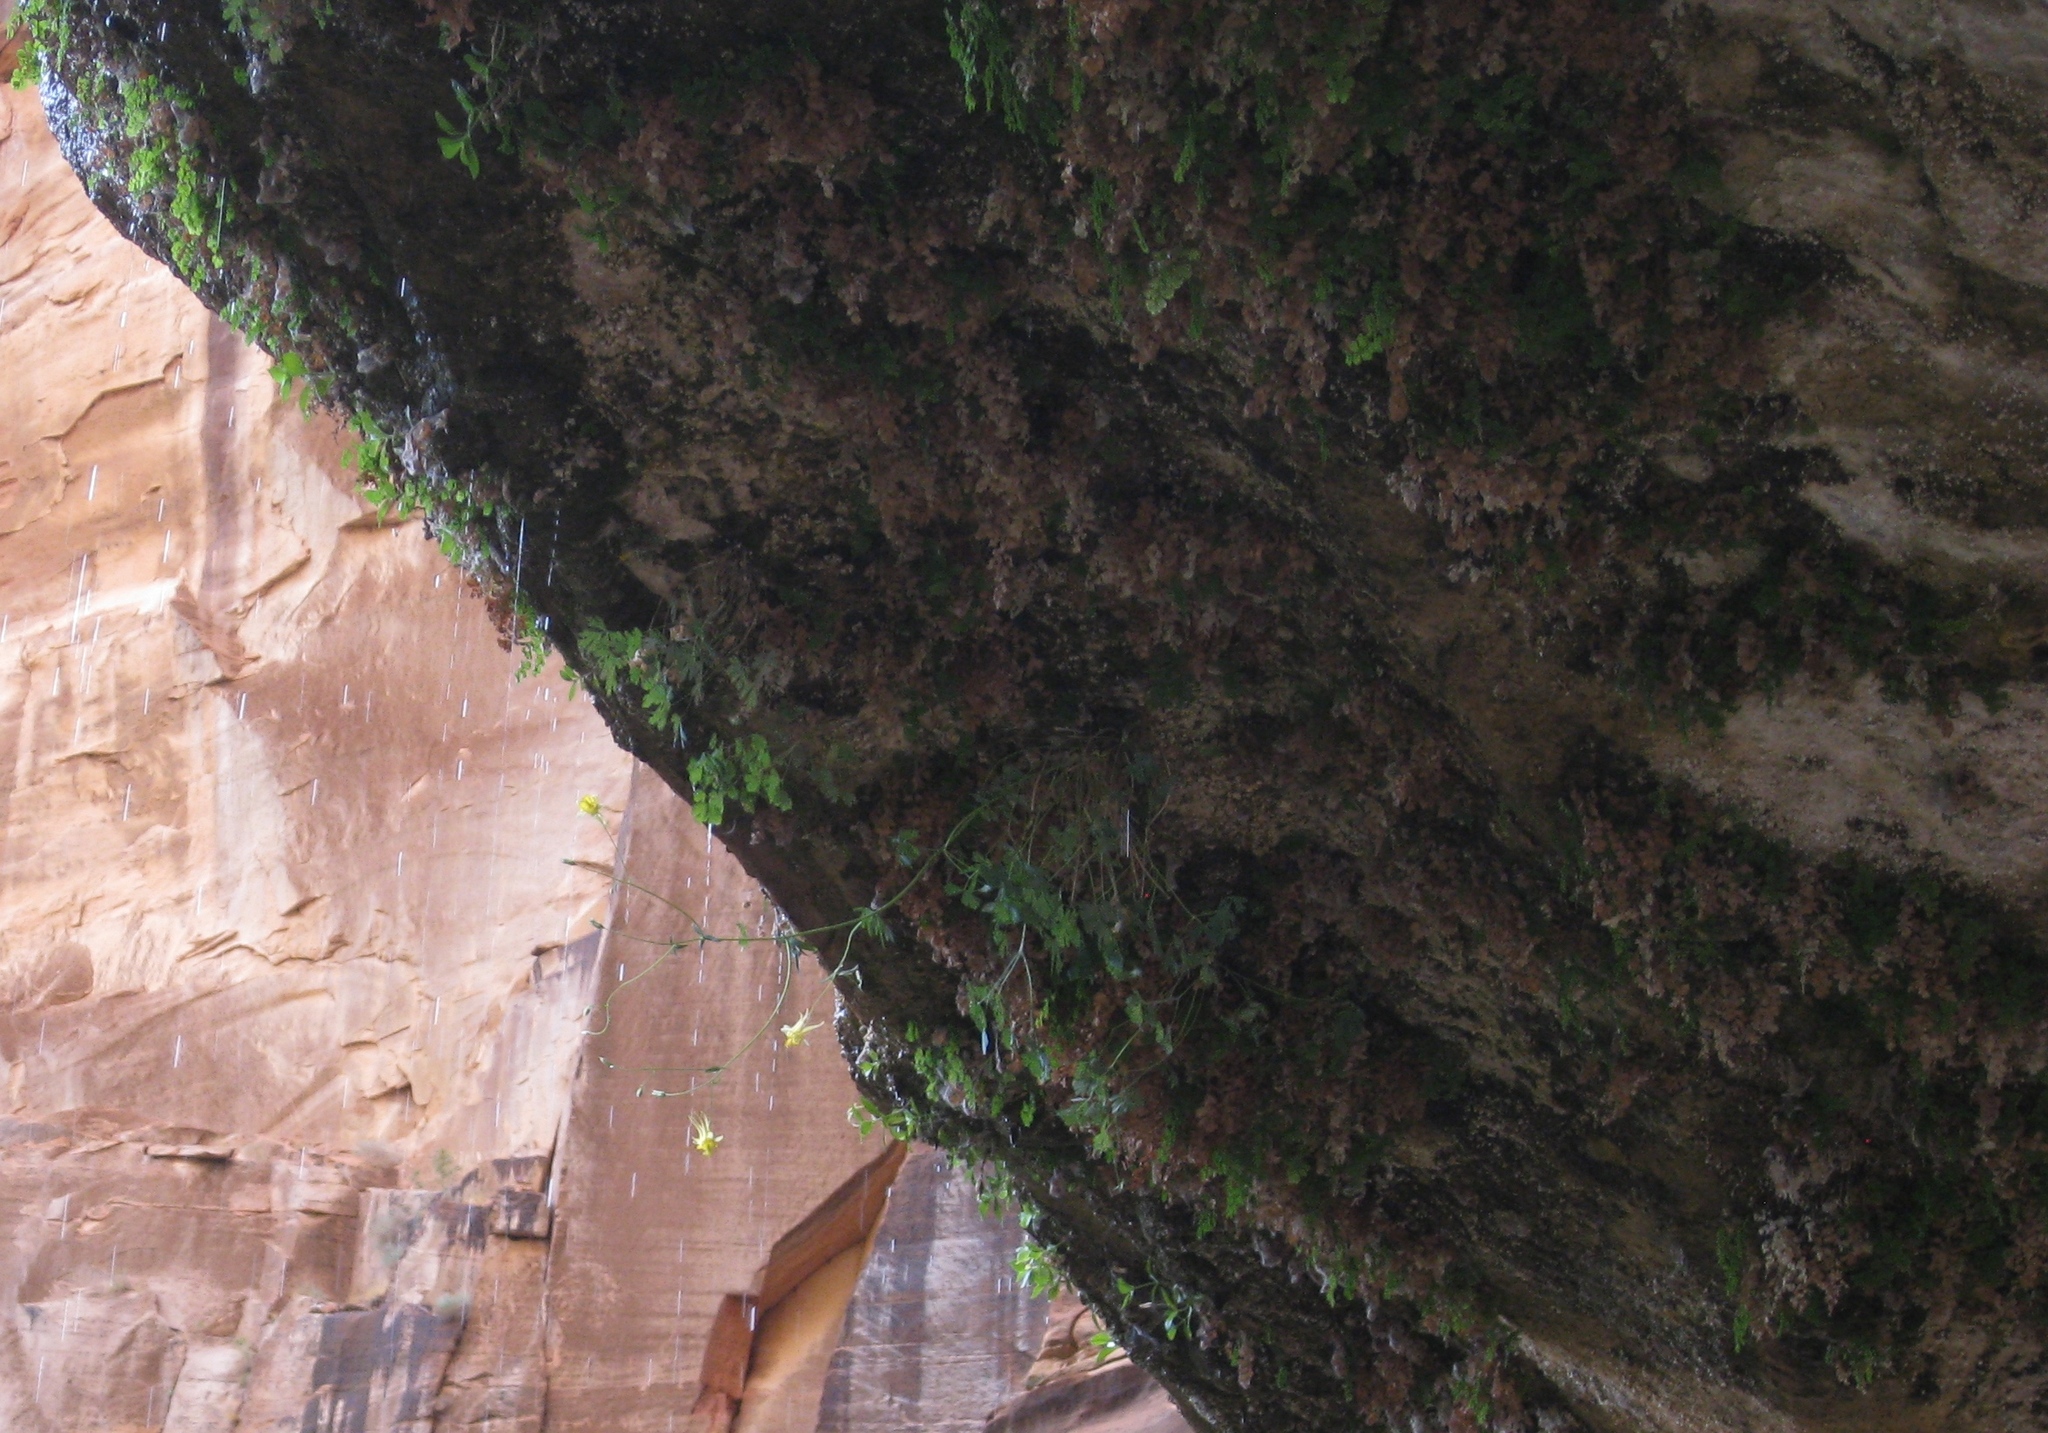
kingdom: Plantae
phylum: Tracheophyta
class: Magnoliopsida
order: Ranunculales
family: Ranunculaceae
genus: Aquilegia
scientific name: Aquilegia chrysantha
